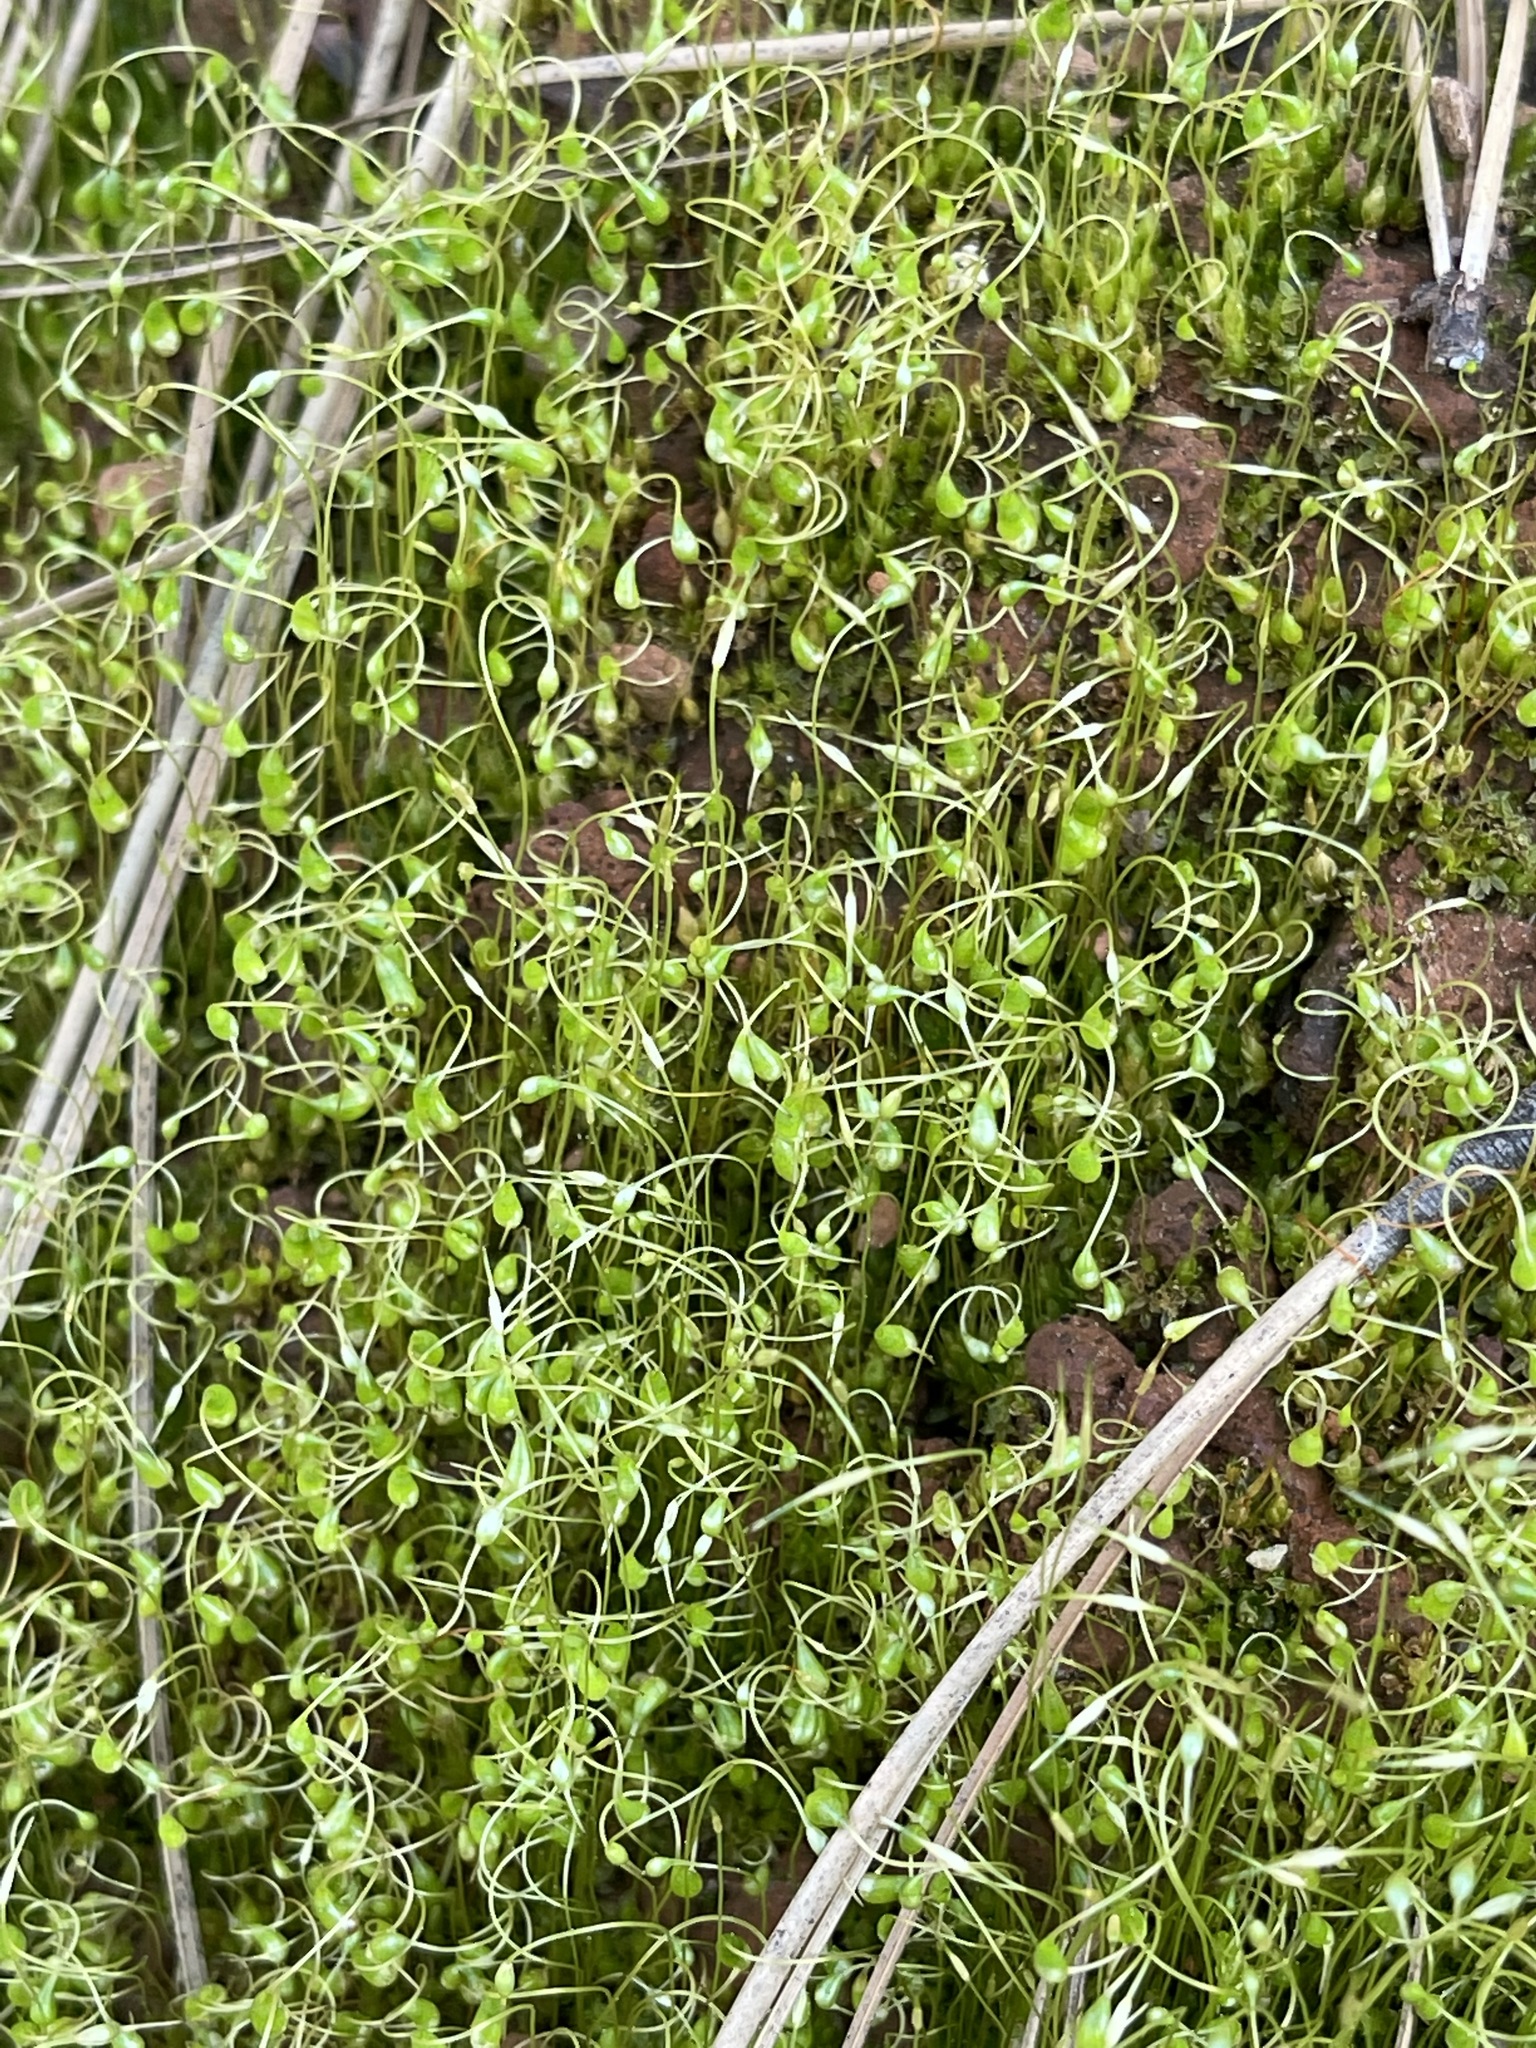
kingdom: Plantae
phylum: Bryophyta
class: Bryopsida
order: Funariales
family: Funariaceae
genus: Funaria
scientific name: Funaria hygrometrica
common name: Common cord moss
